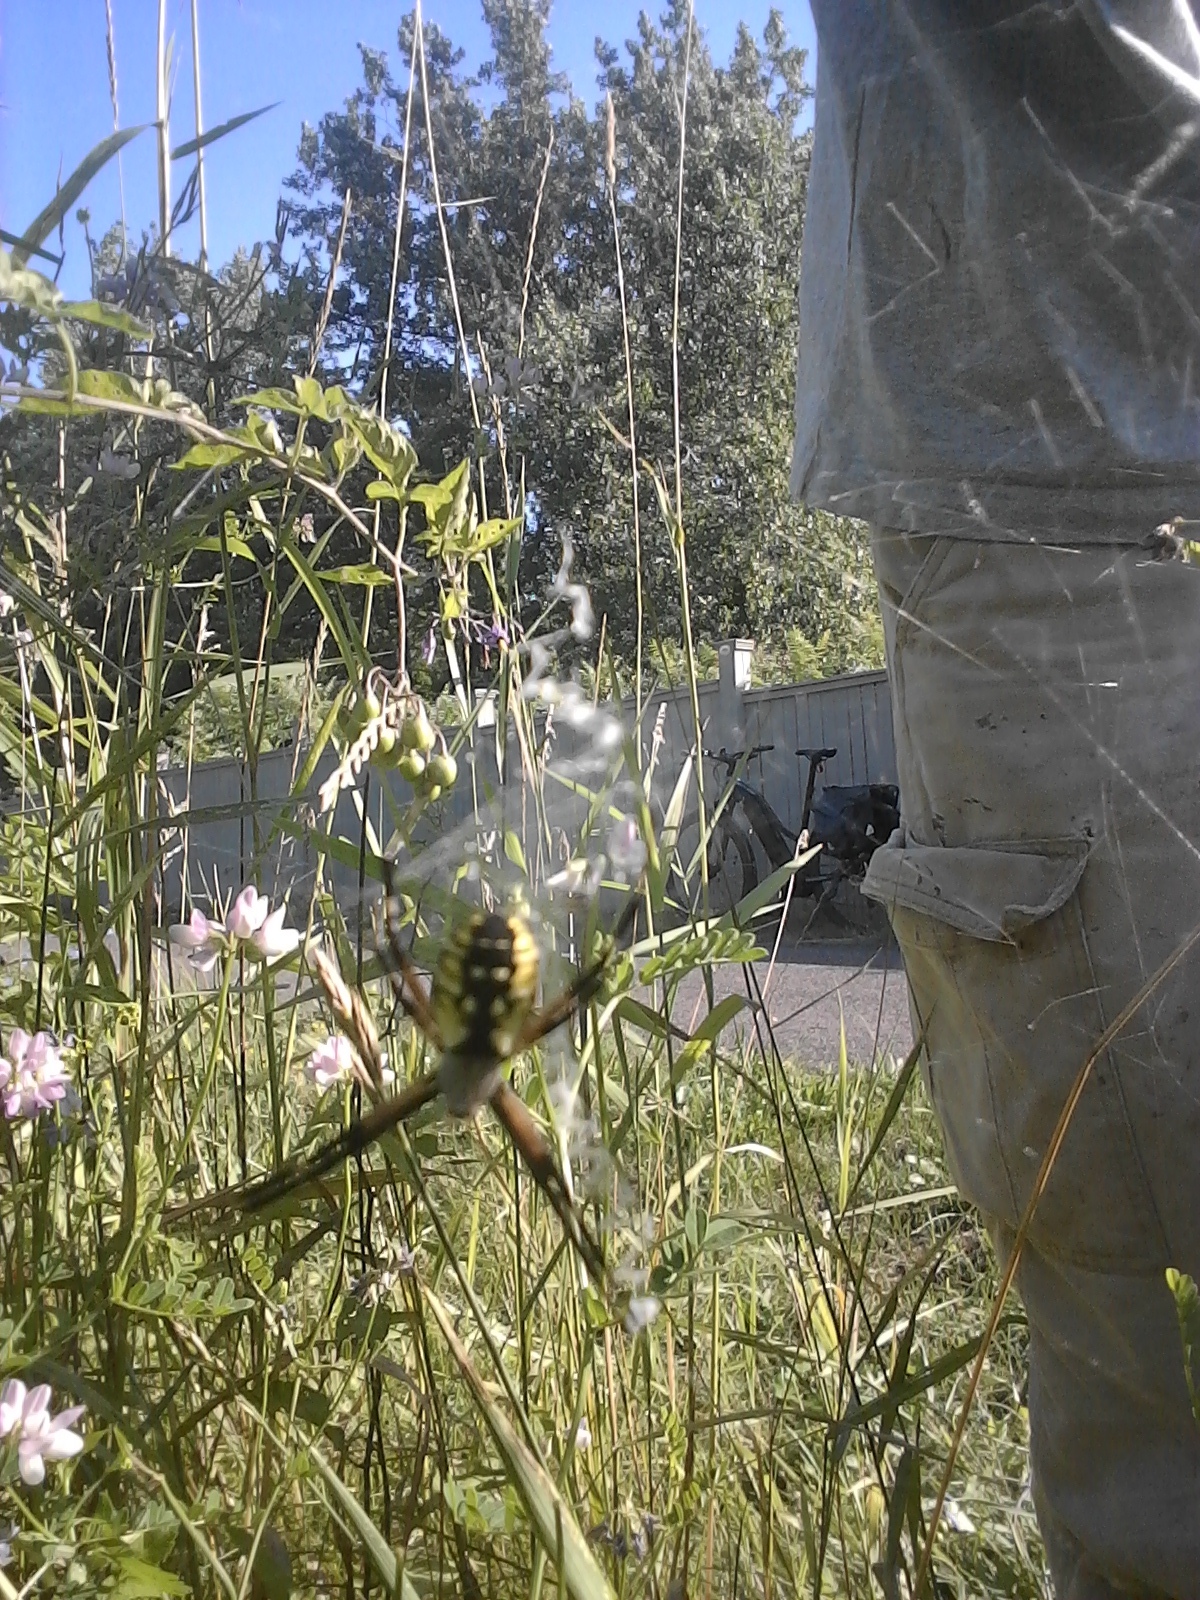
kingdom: Animalia
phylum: Arthropoda
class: Arachnida
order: Araneae
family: Araneidae
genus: Argiope
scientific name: Argiope aurantia
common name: Orb weavers
